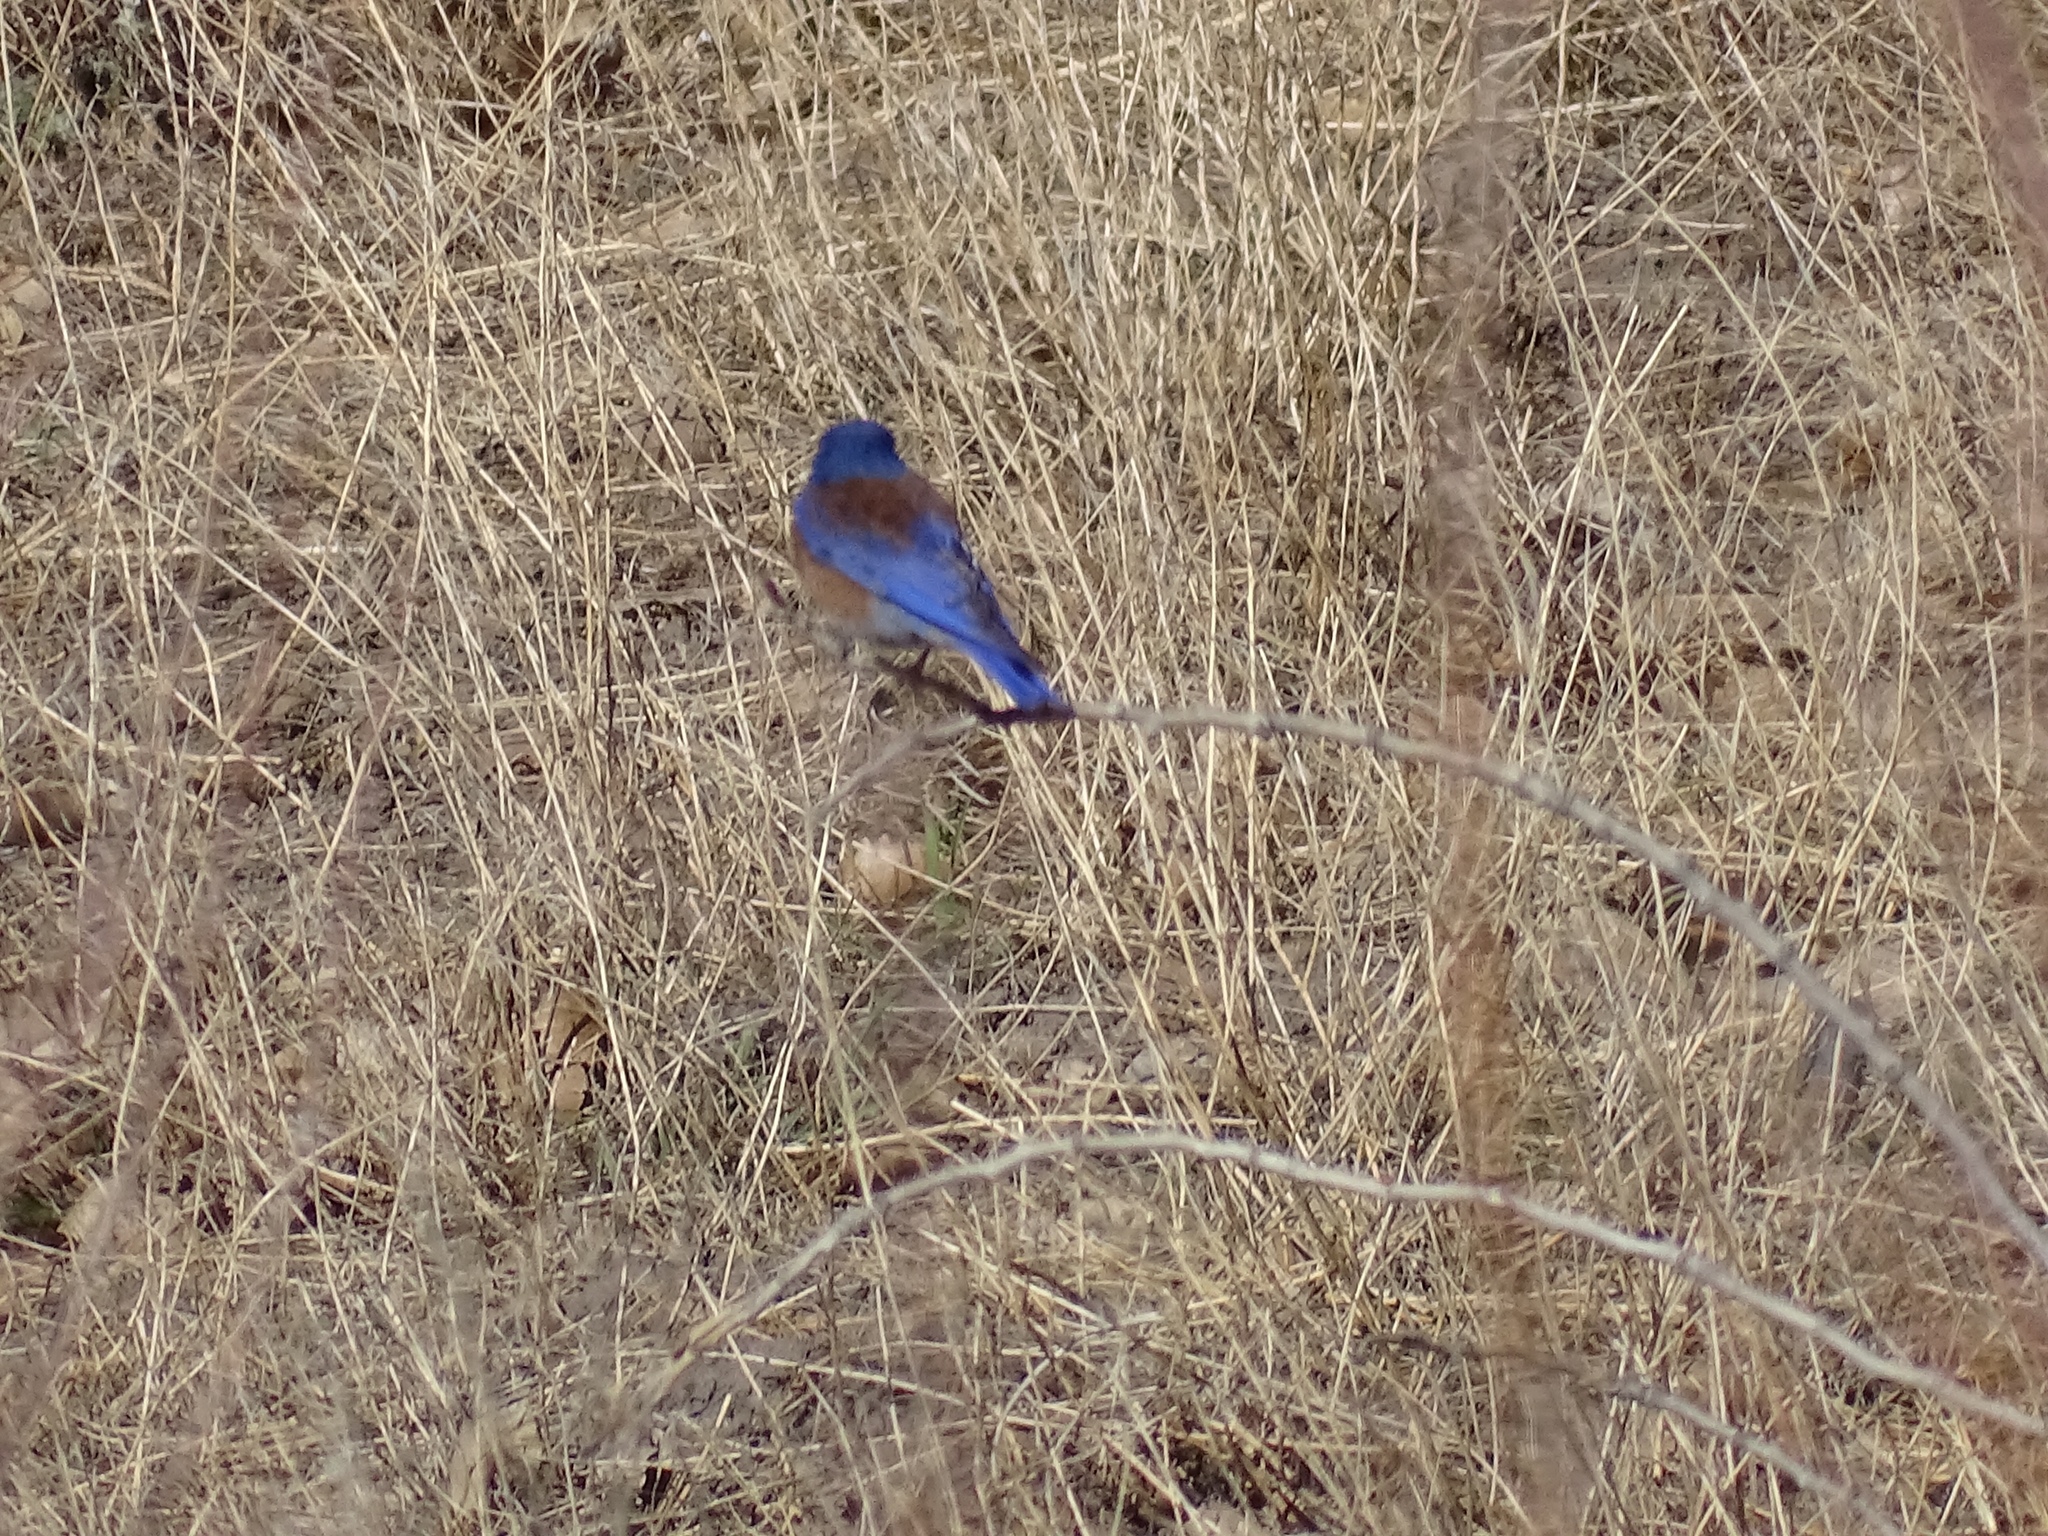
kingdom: Animalia
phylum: Chordata
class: Aves
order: Passeriformes
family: Turdidae
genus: Sialia
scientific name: Sialia mexicana
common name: Western bluebird
